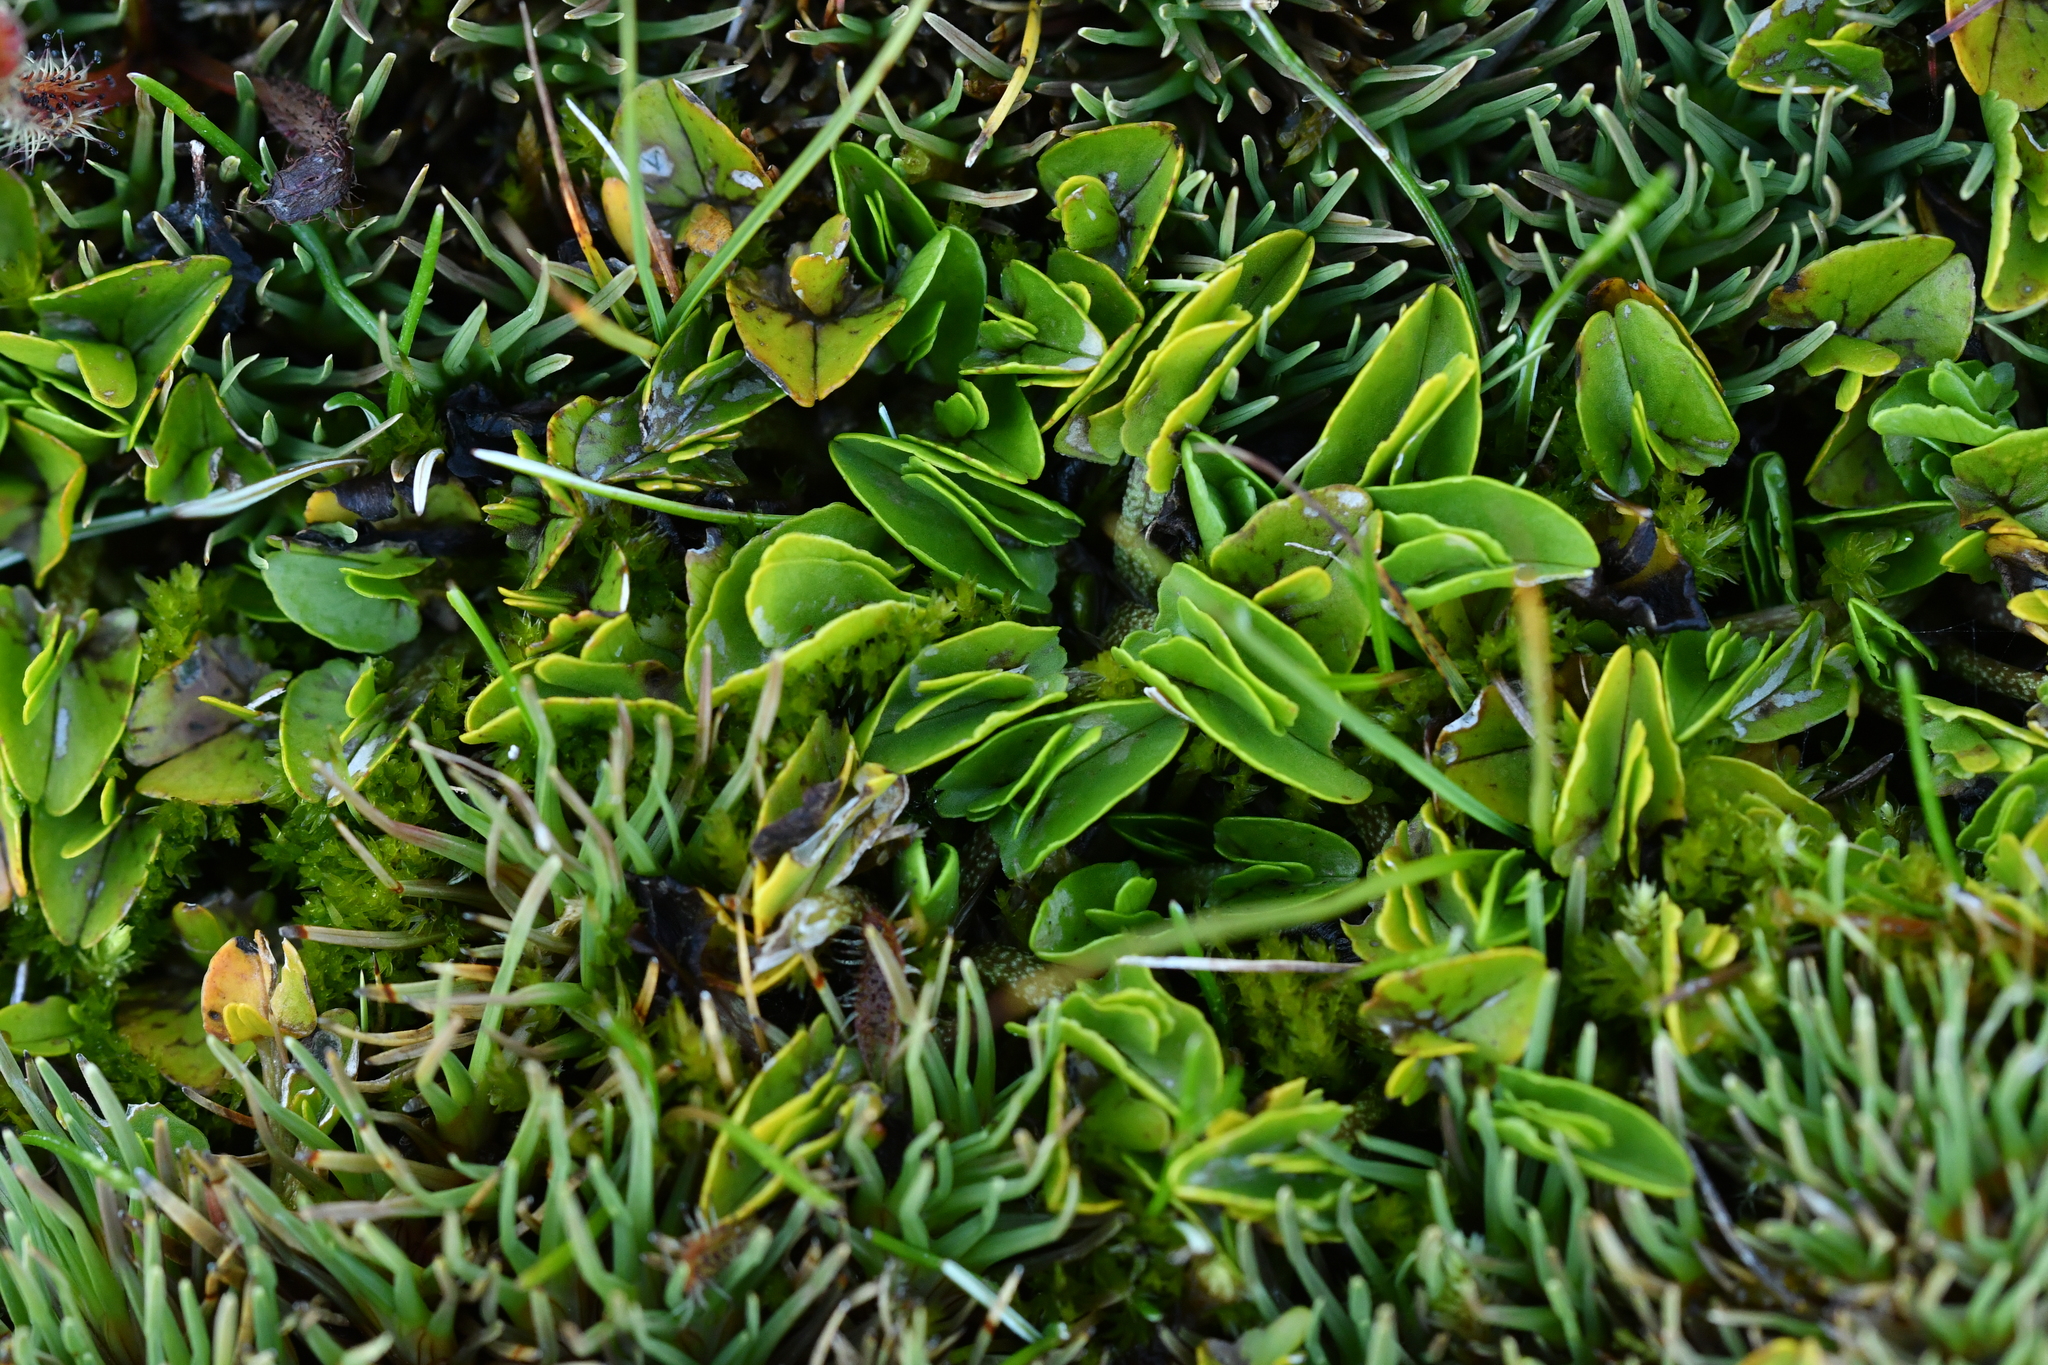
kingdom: Plantae
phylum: Tracheophyta
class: Magnoliopsida
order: Ranunculales
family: Ranunculaceae
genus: Caltha
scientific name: Caltha obtusa
